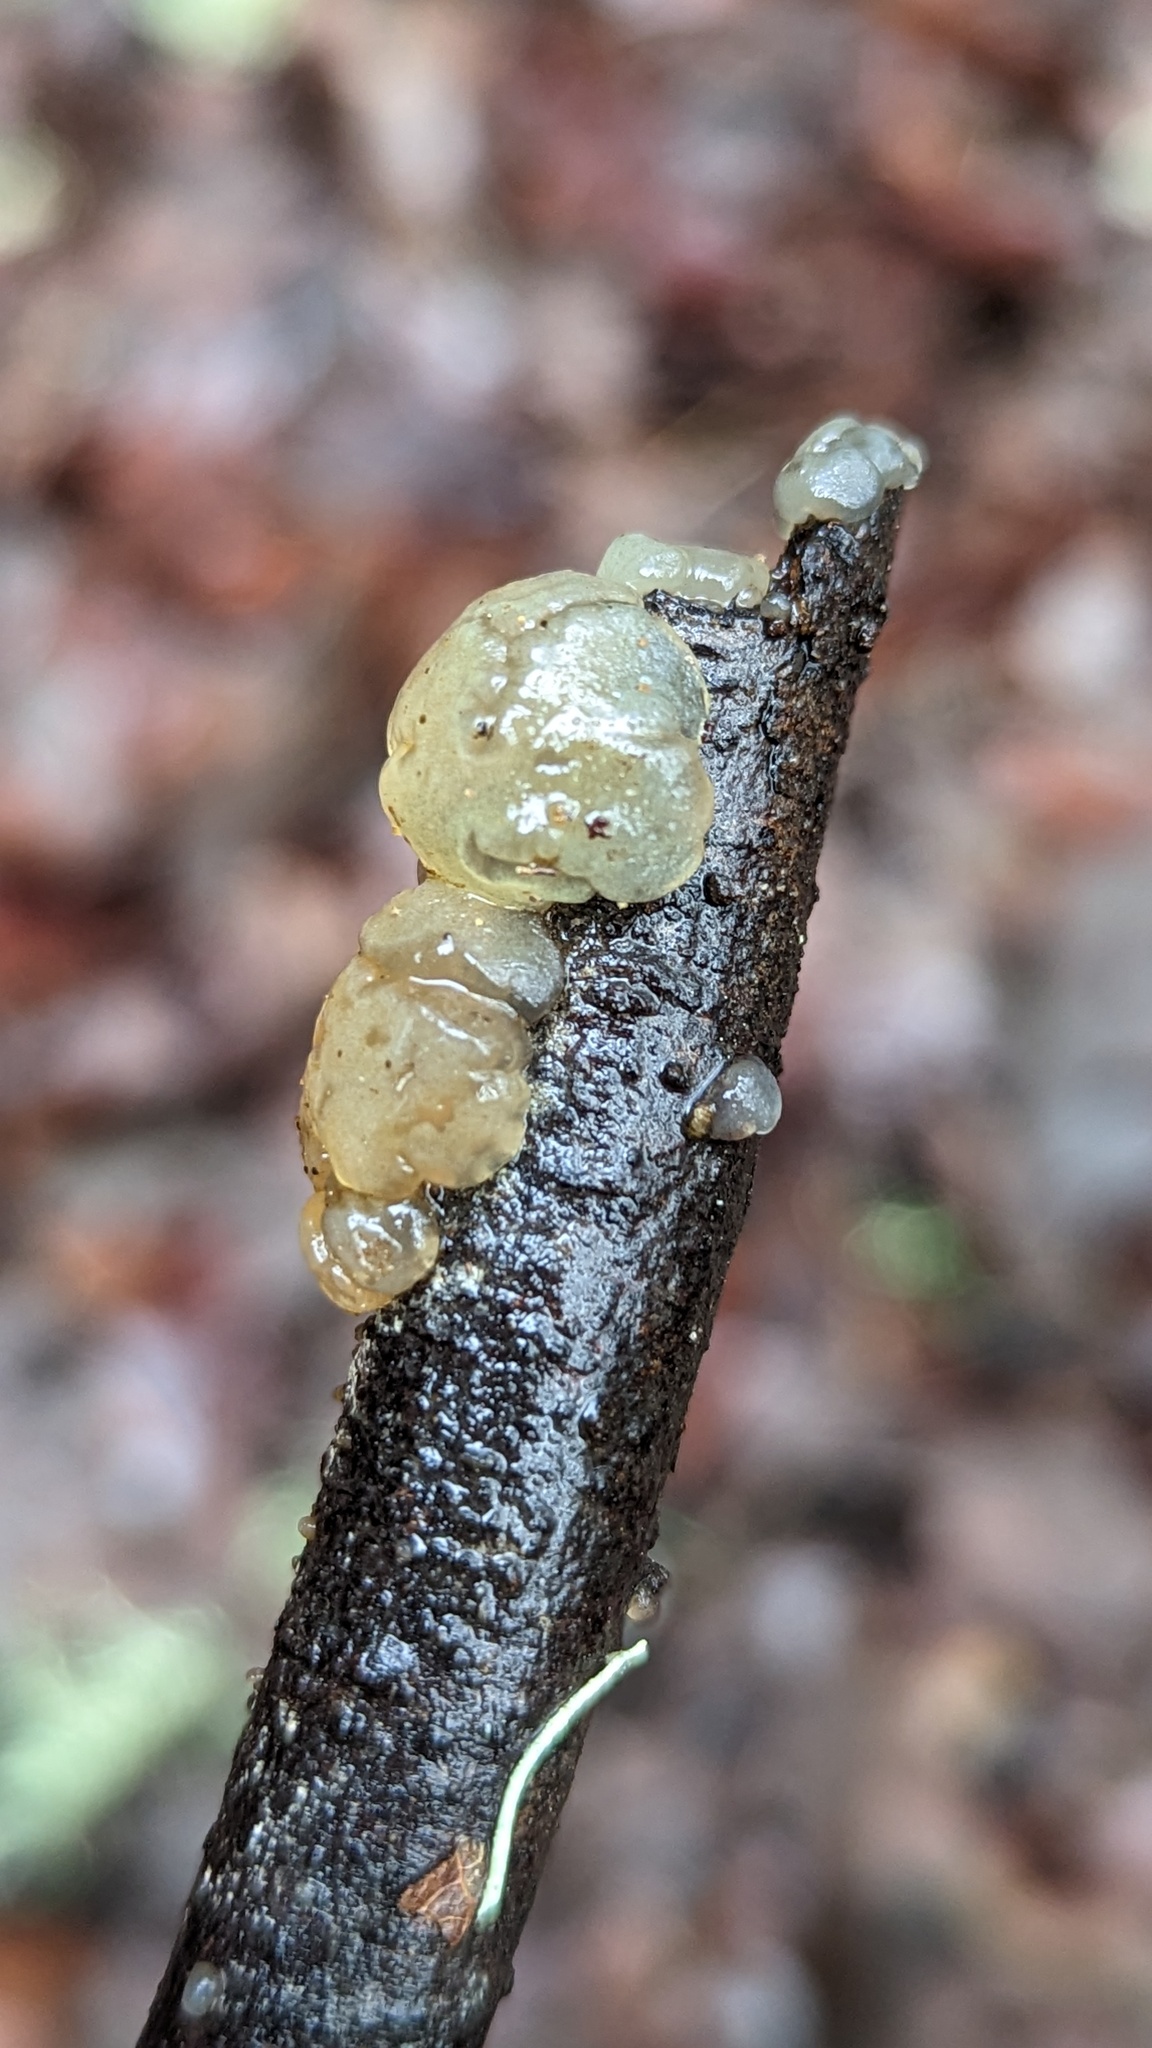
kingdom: Fungi
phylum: Basidiomycota
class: Agaricomycetes
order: Auriculariales
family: Hyaloriaceae
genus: Myxarium
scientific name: Myxarium nucleatum
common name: Crystal brain fungus
